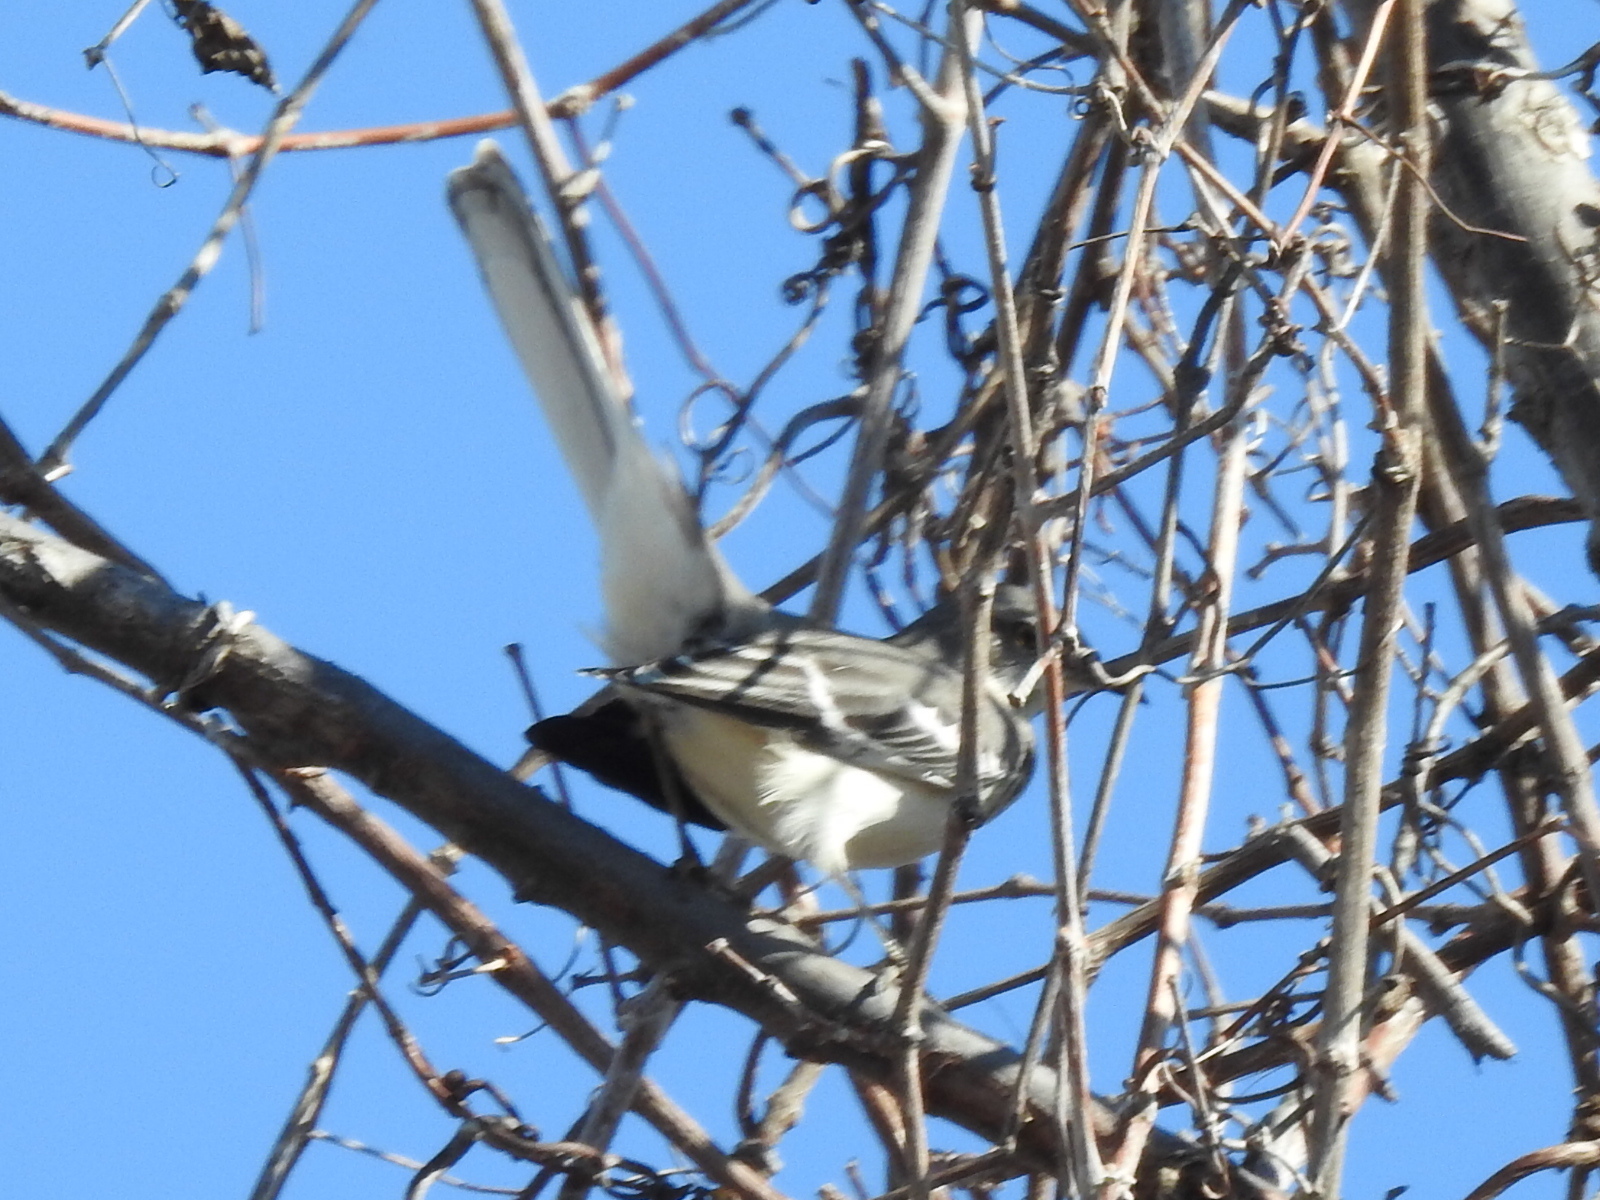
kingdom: Animalia
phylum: Chordata
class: Aves
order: Passeriformes
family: Mimidae
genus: Mimus
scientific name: Mimus polyglottos
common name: Northern mockingbird
